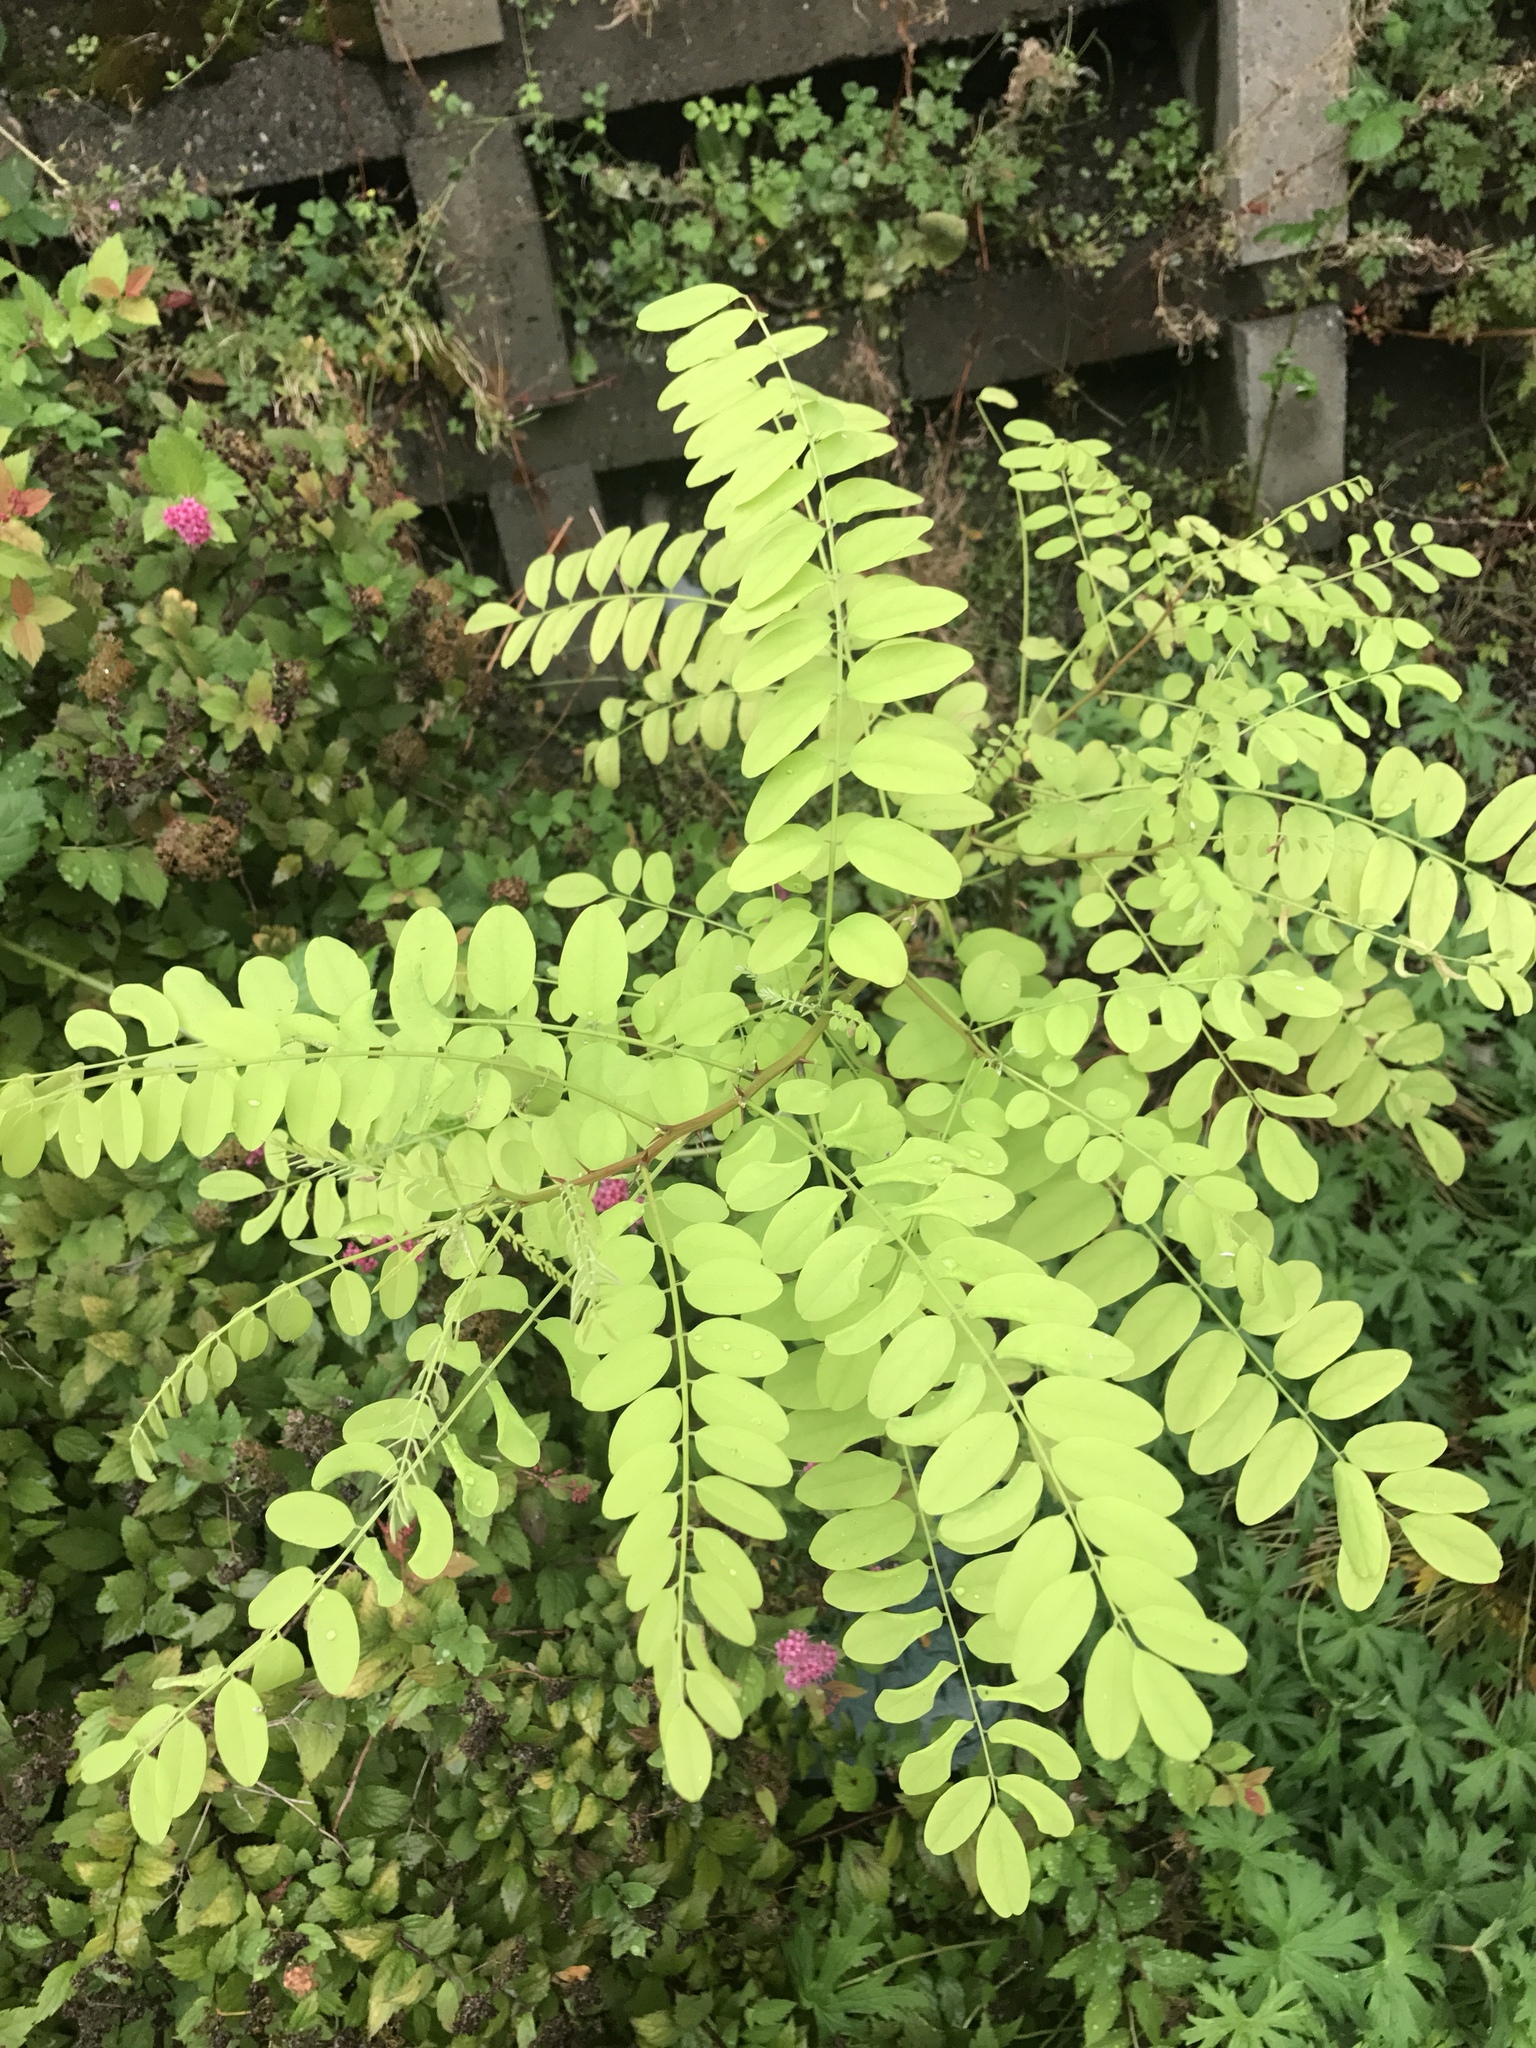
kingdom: Plantae
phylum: Tracheophyta
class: Magnoliopsida
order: Fabales
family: Fabaceae
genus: Robinia
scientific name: Robinia pseudoacacia
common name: Black locust
